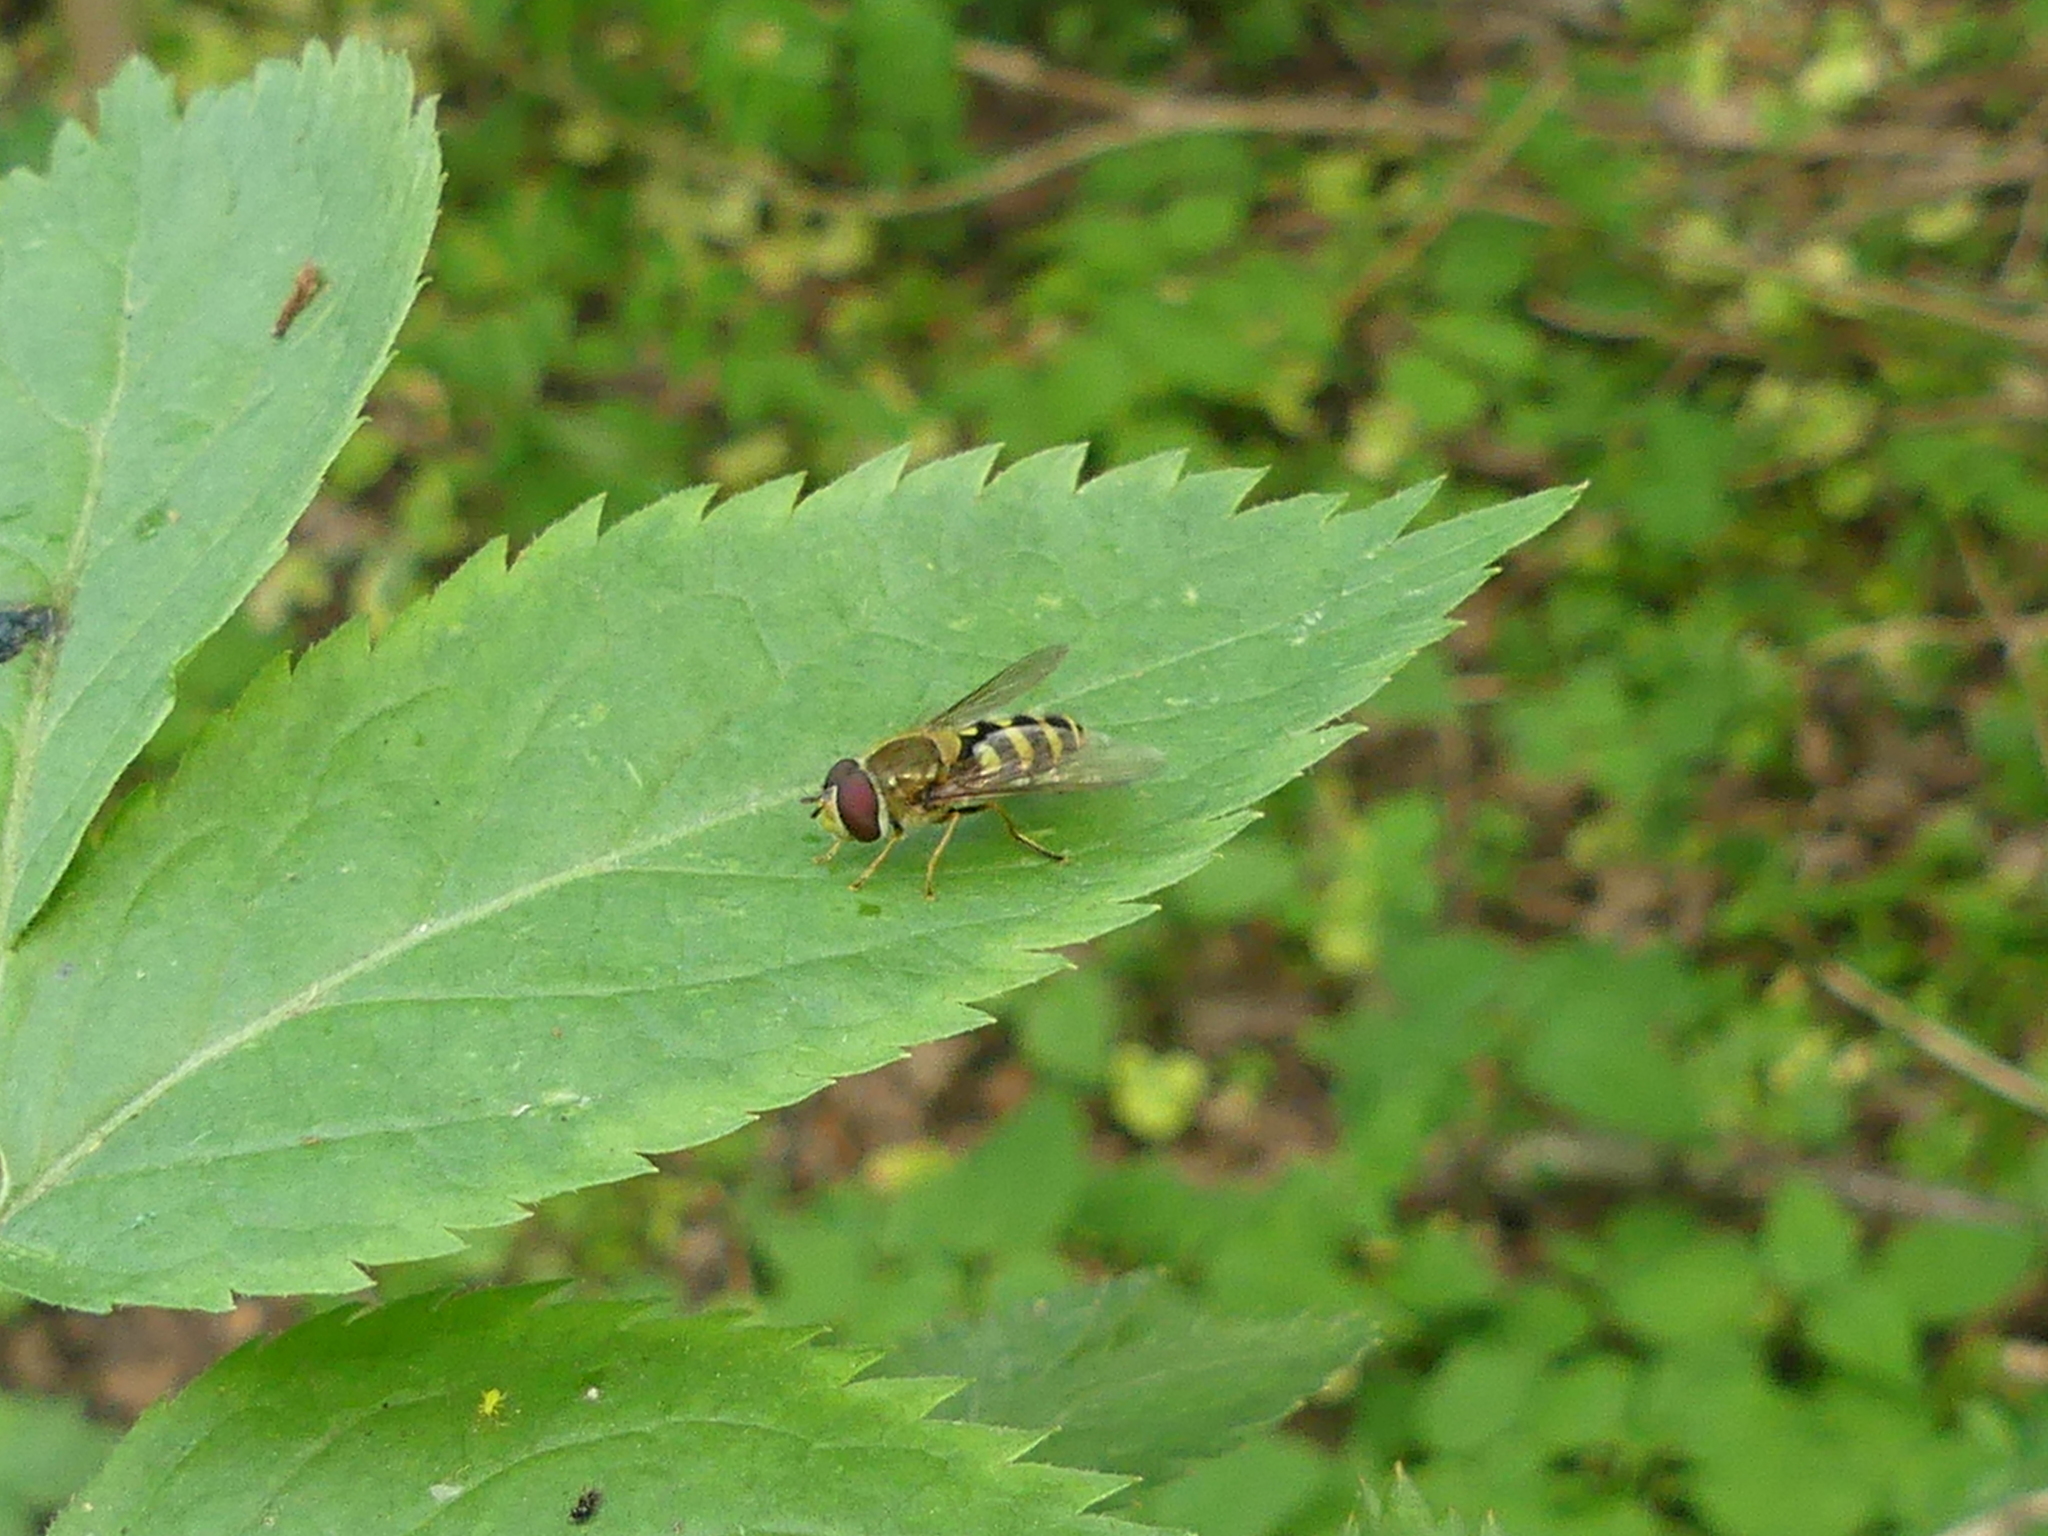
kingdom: Animalia
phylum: Arthropoda
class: Insecta
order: Diptera
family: Syrphidae
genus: Syrphus
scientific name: Syrphus
